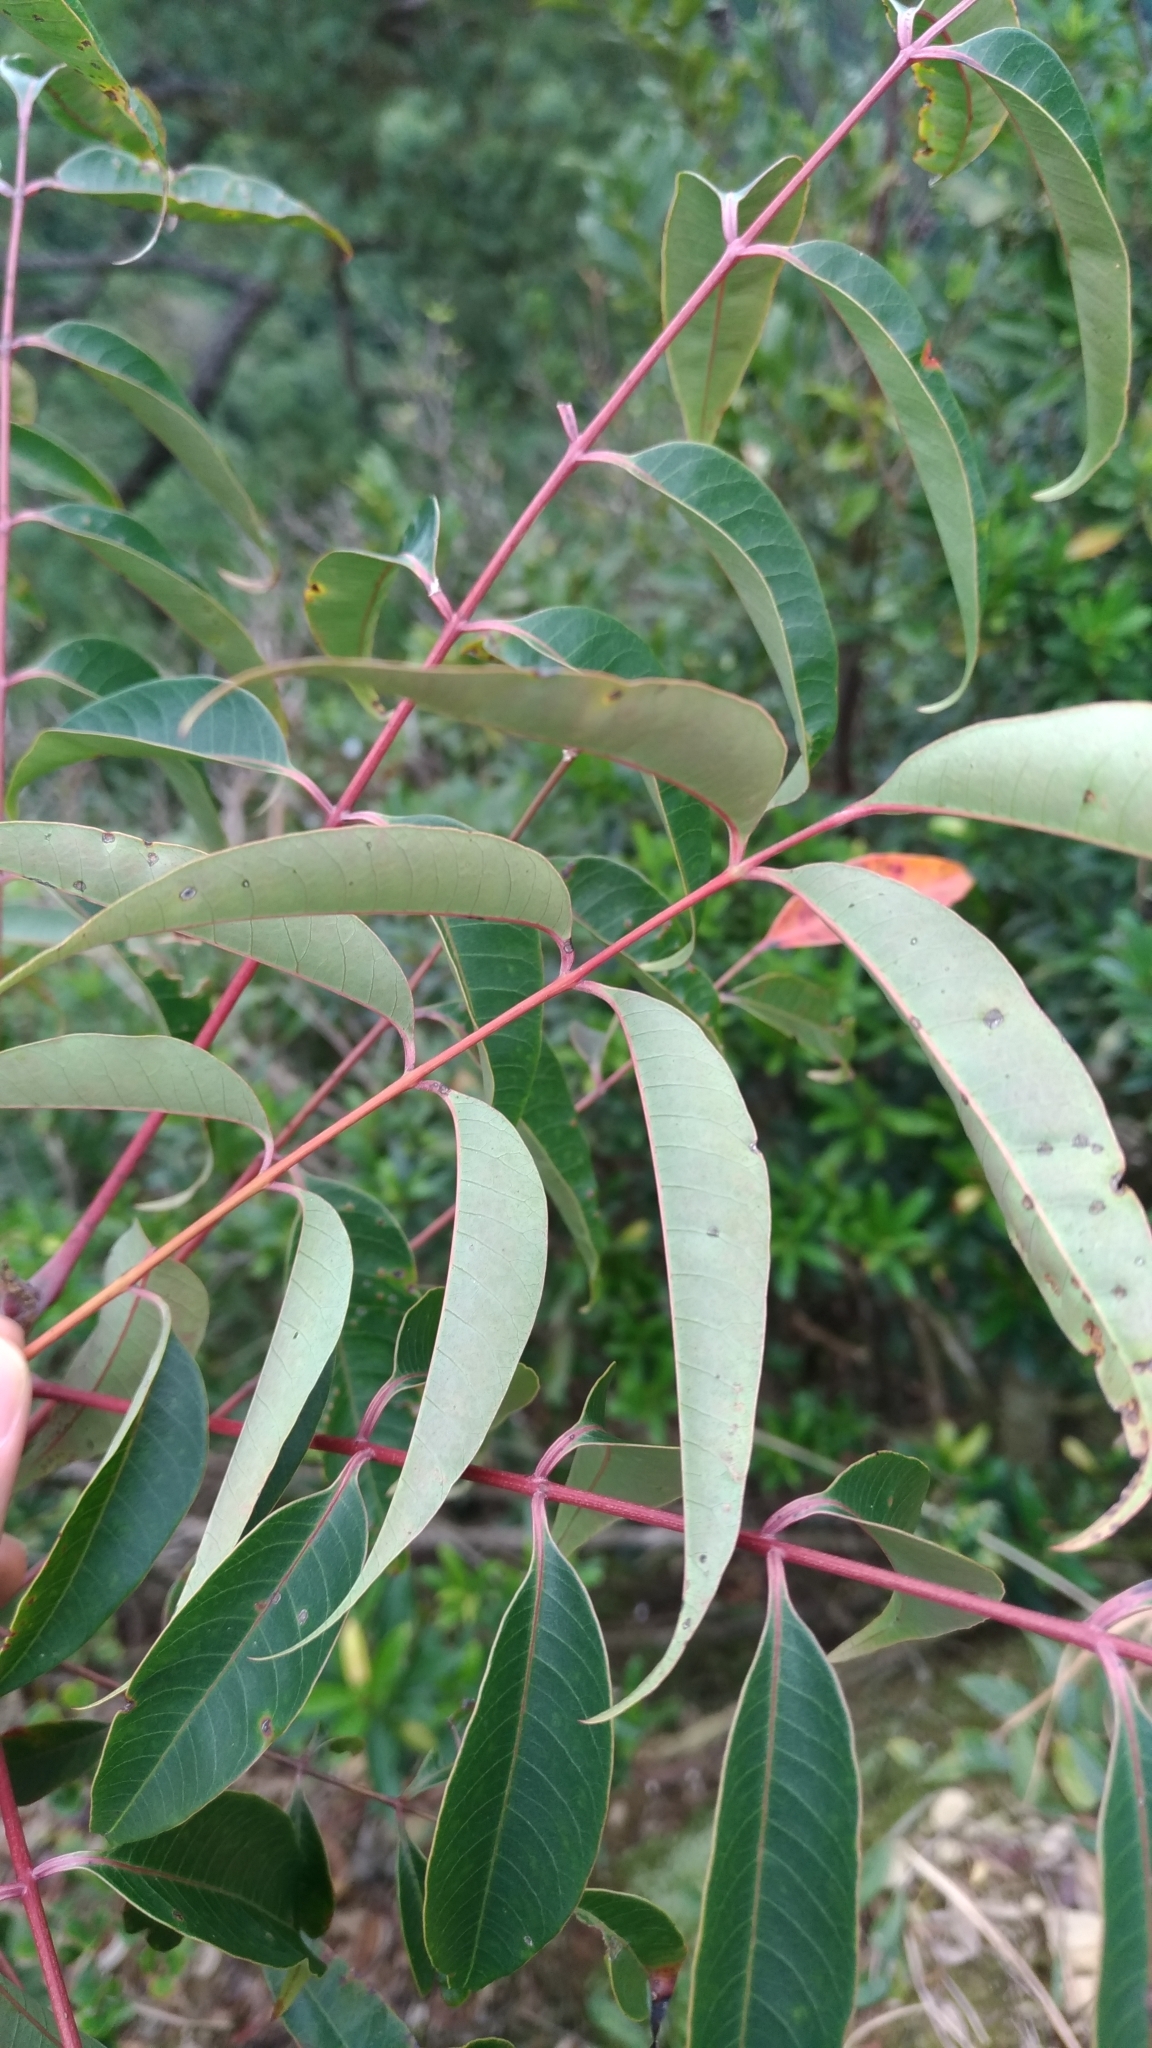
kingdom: Plantae
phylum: Tracheophyta
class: Magnoliopsida
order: Sapindales
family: Anacardiaceae
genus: Toxicodendron
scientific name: Toxicodendron succedaneum
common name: Wax tree
